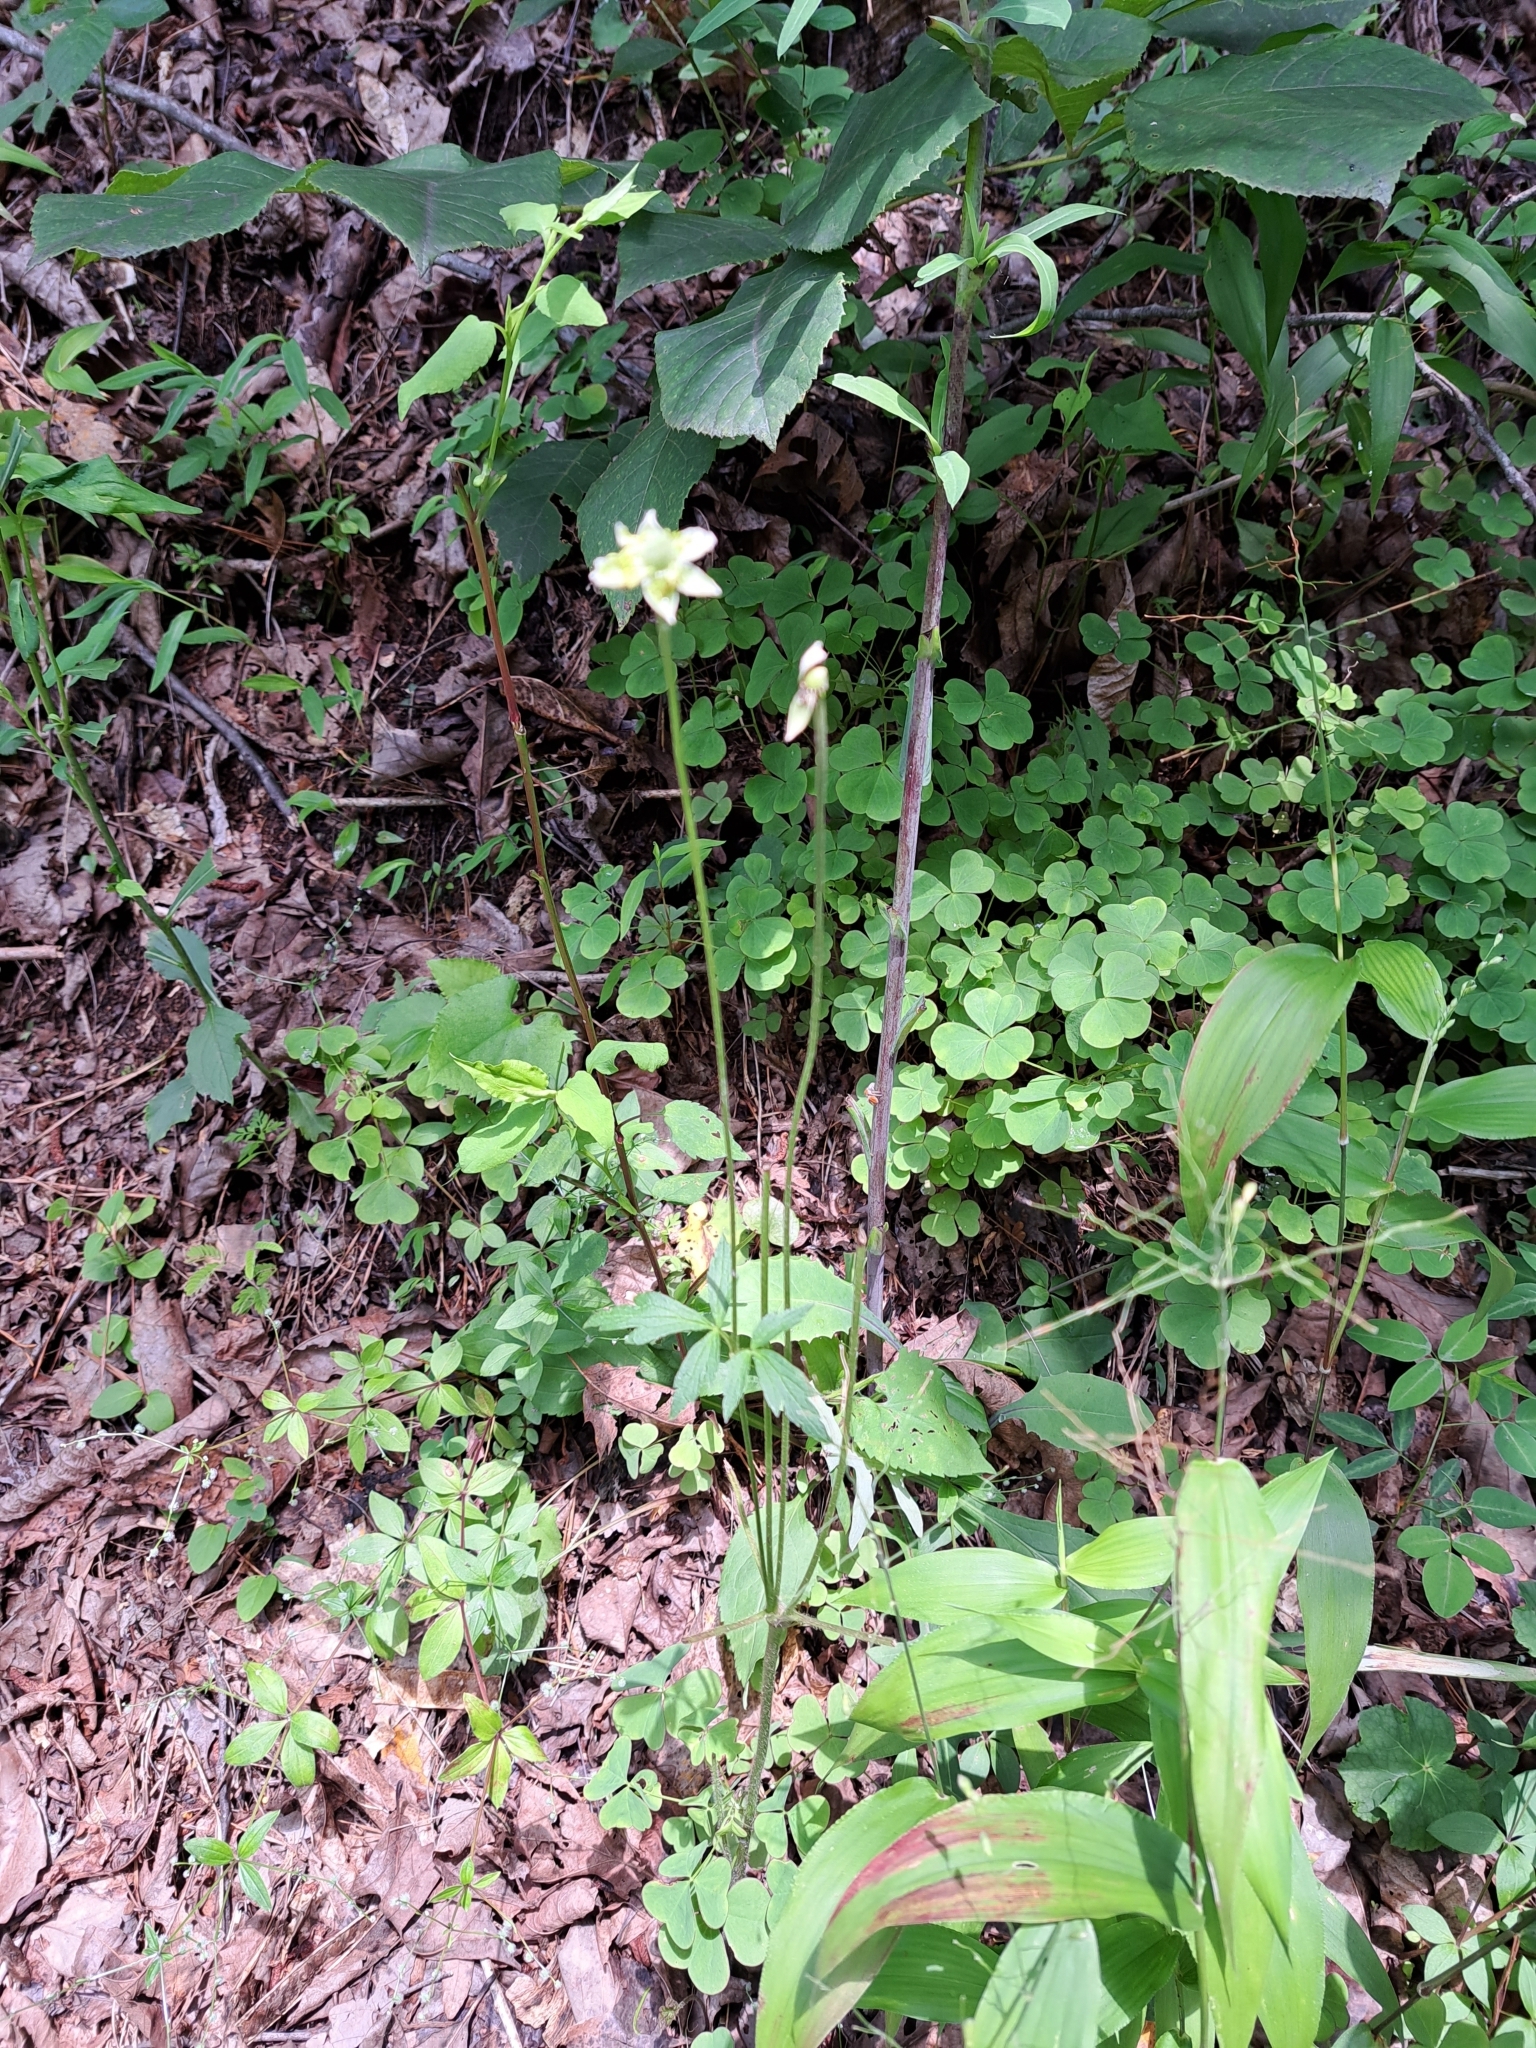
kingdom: Plantae
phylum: Tracheophyta
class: Magnoliopsida
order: Ranunculales
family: Ranunculaceae
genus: Anemone
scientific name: Anemone virginiana
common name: Tall anemone
